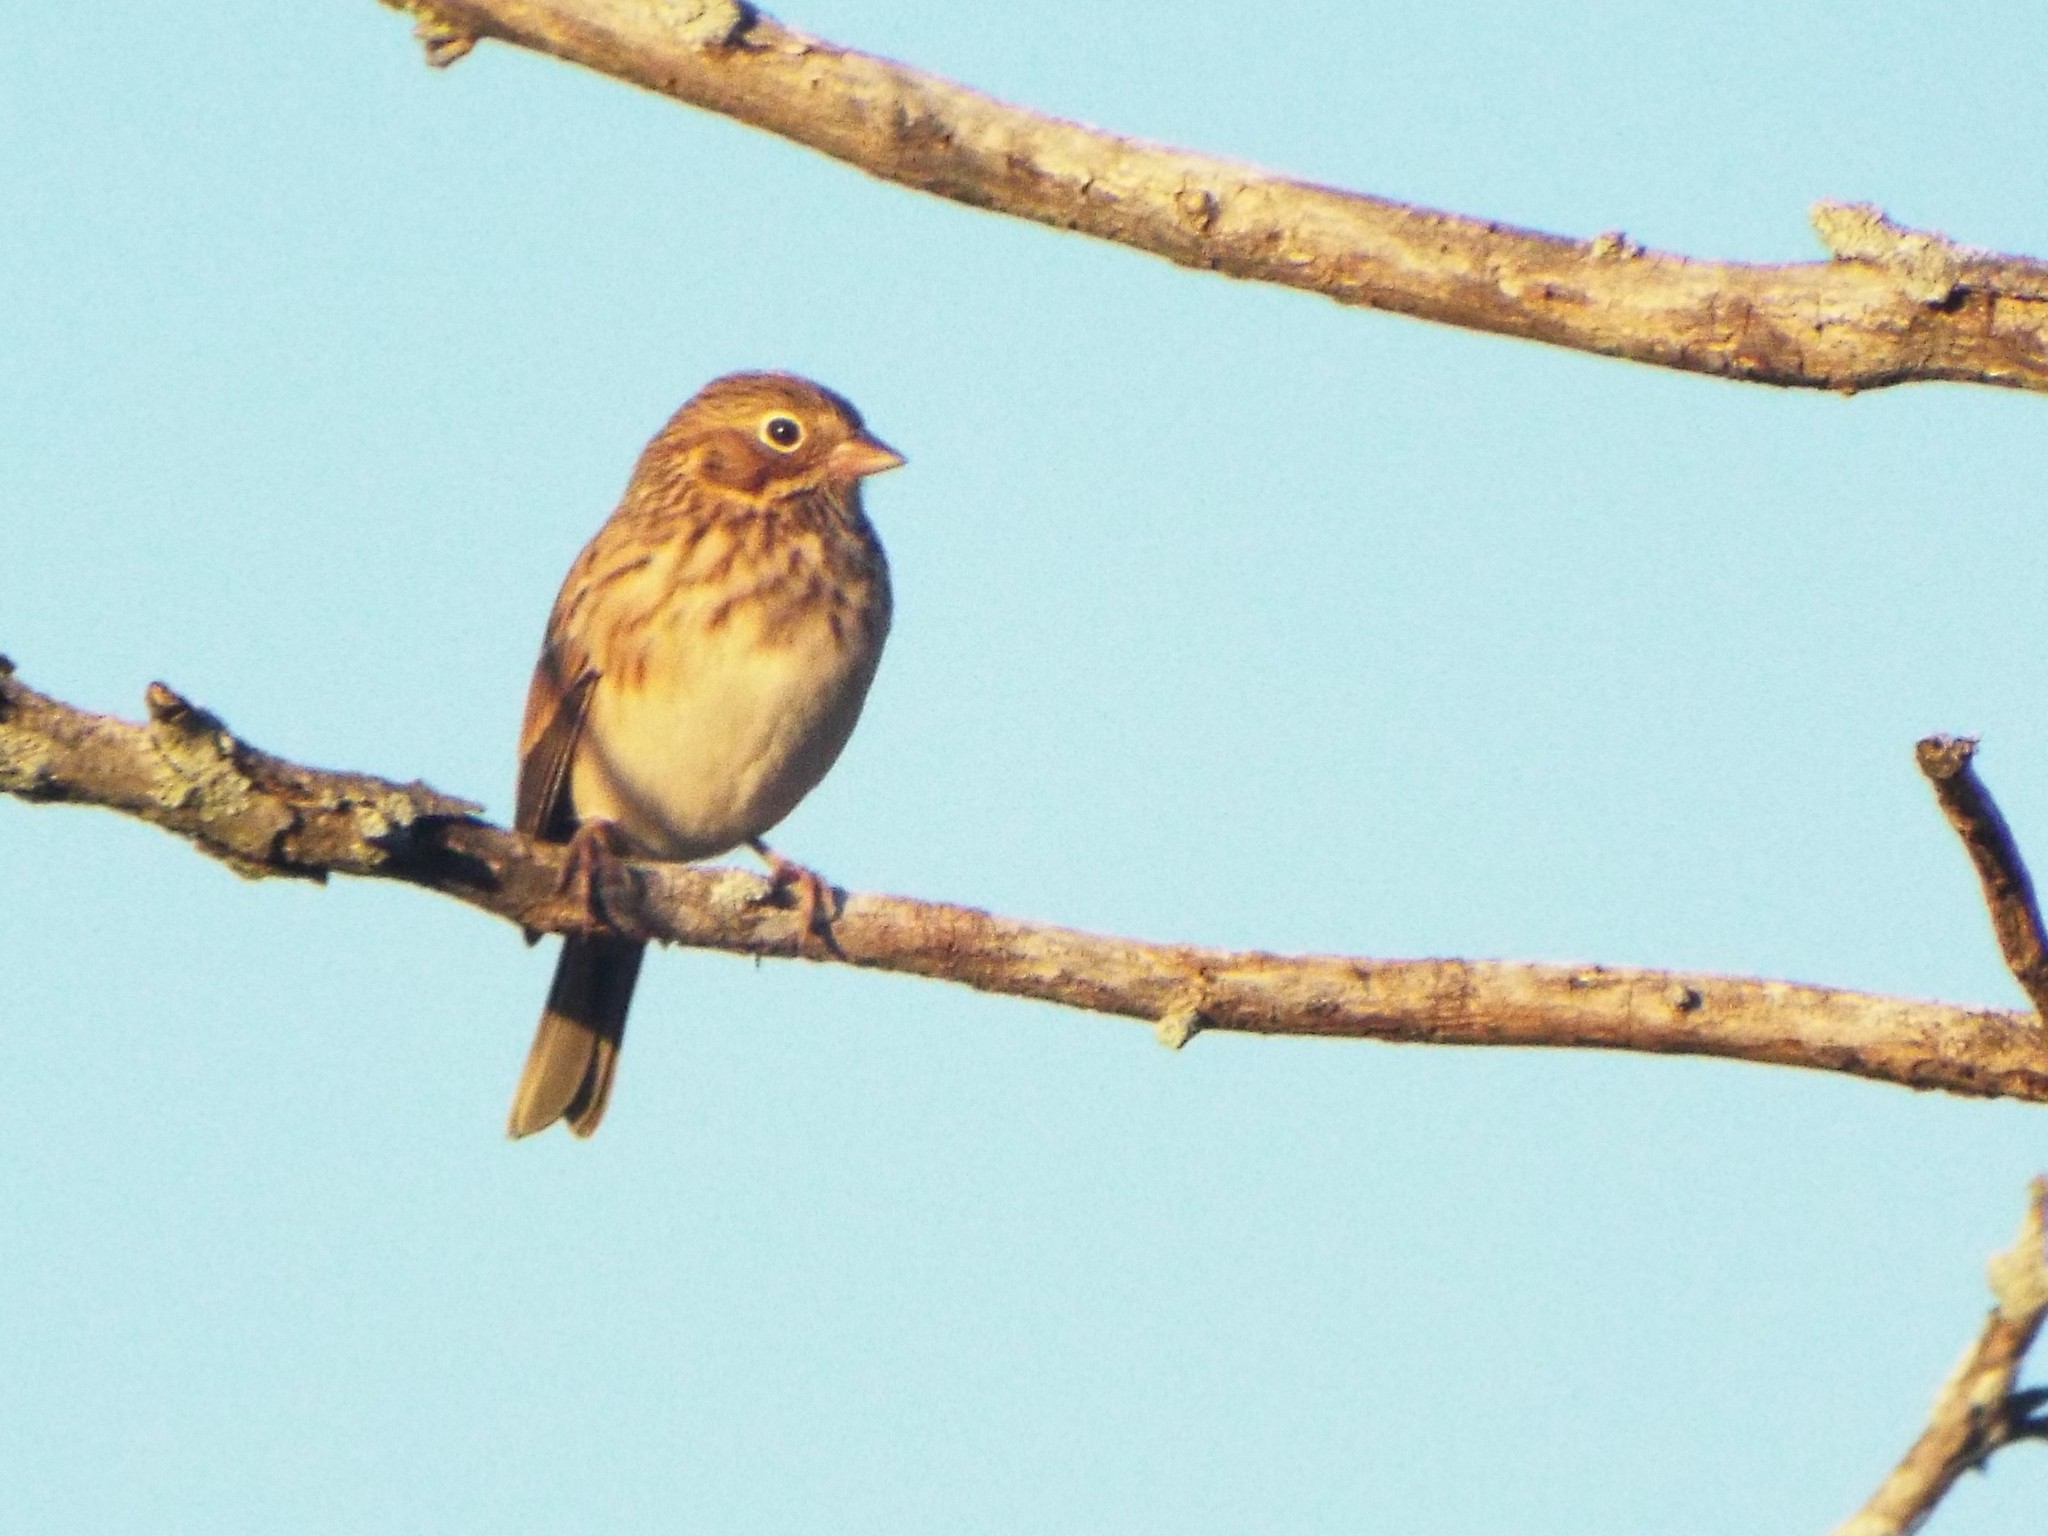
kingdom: Animalia
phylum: Chordata
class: Aves
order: Passeriformes
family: Passerellidae
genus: Pooecetes
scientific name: Pooecetes gramineus
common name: Vesper sparrow
